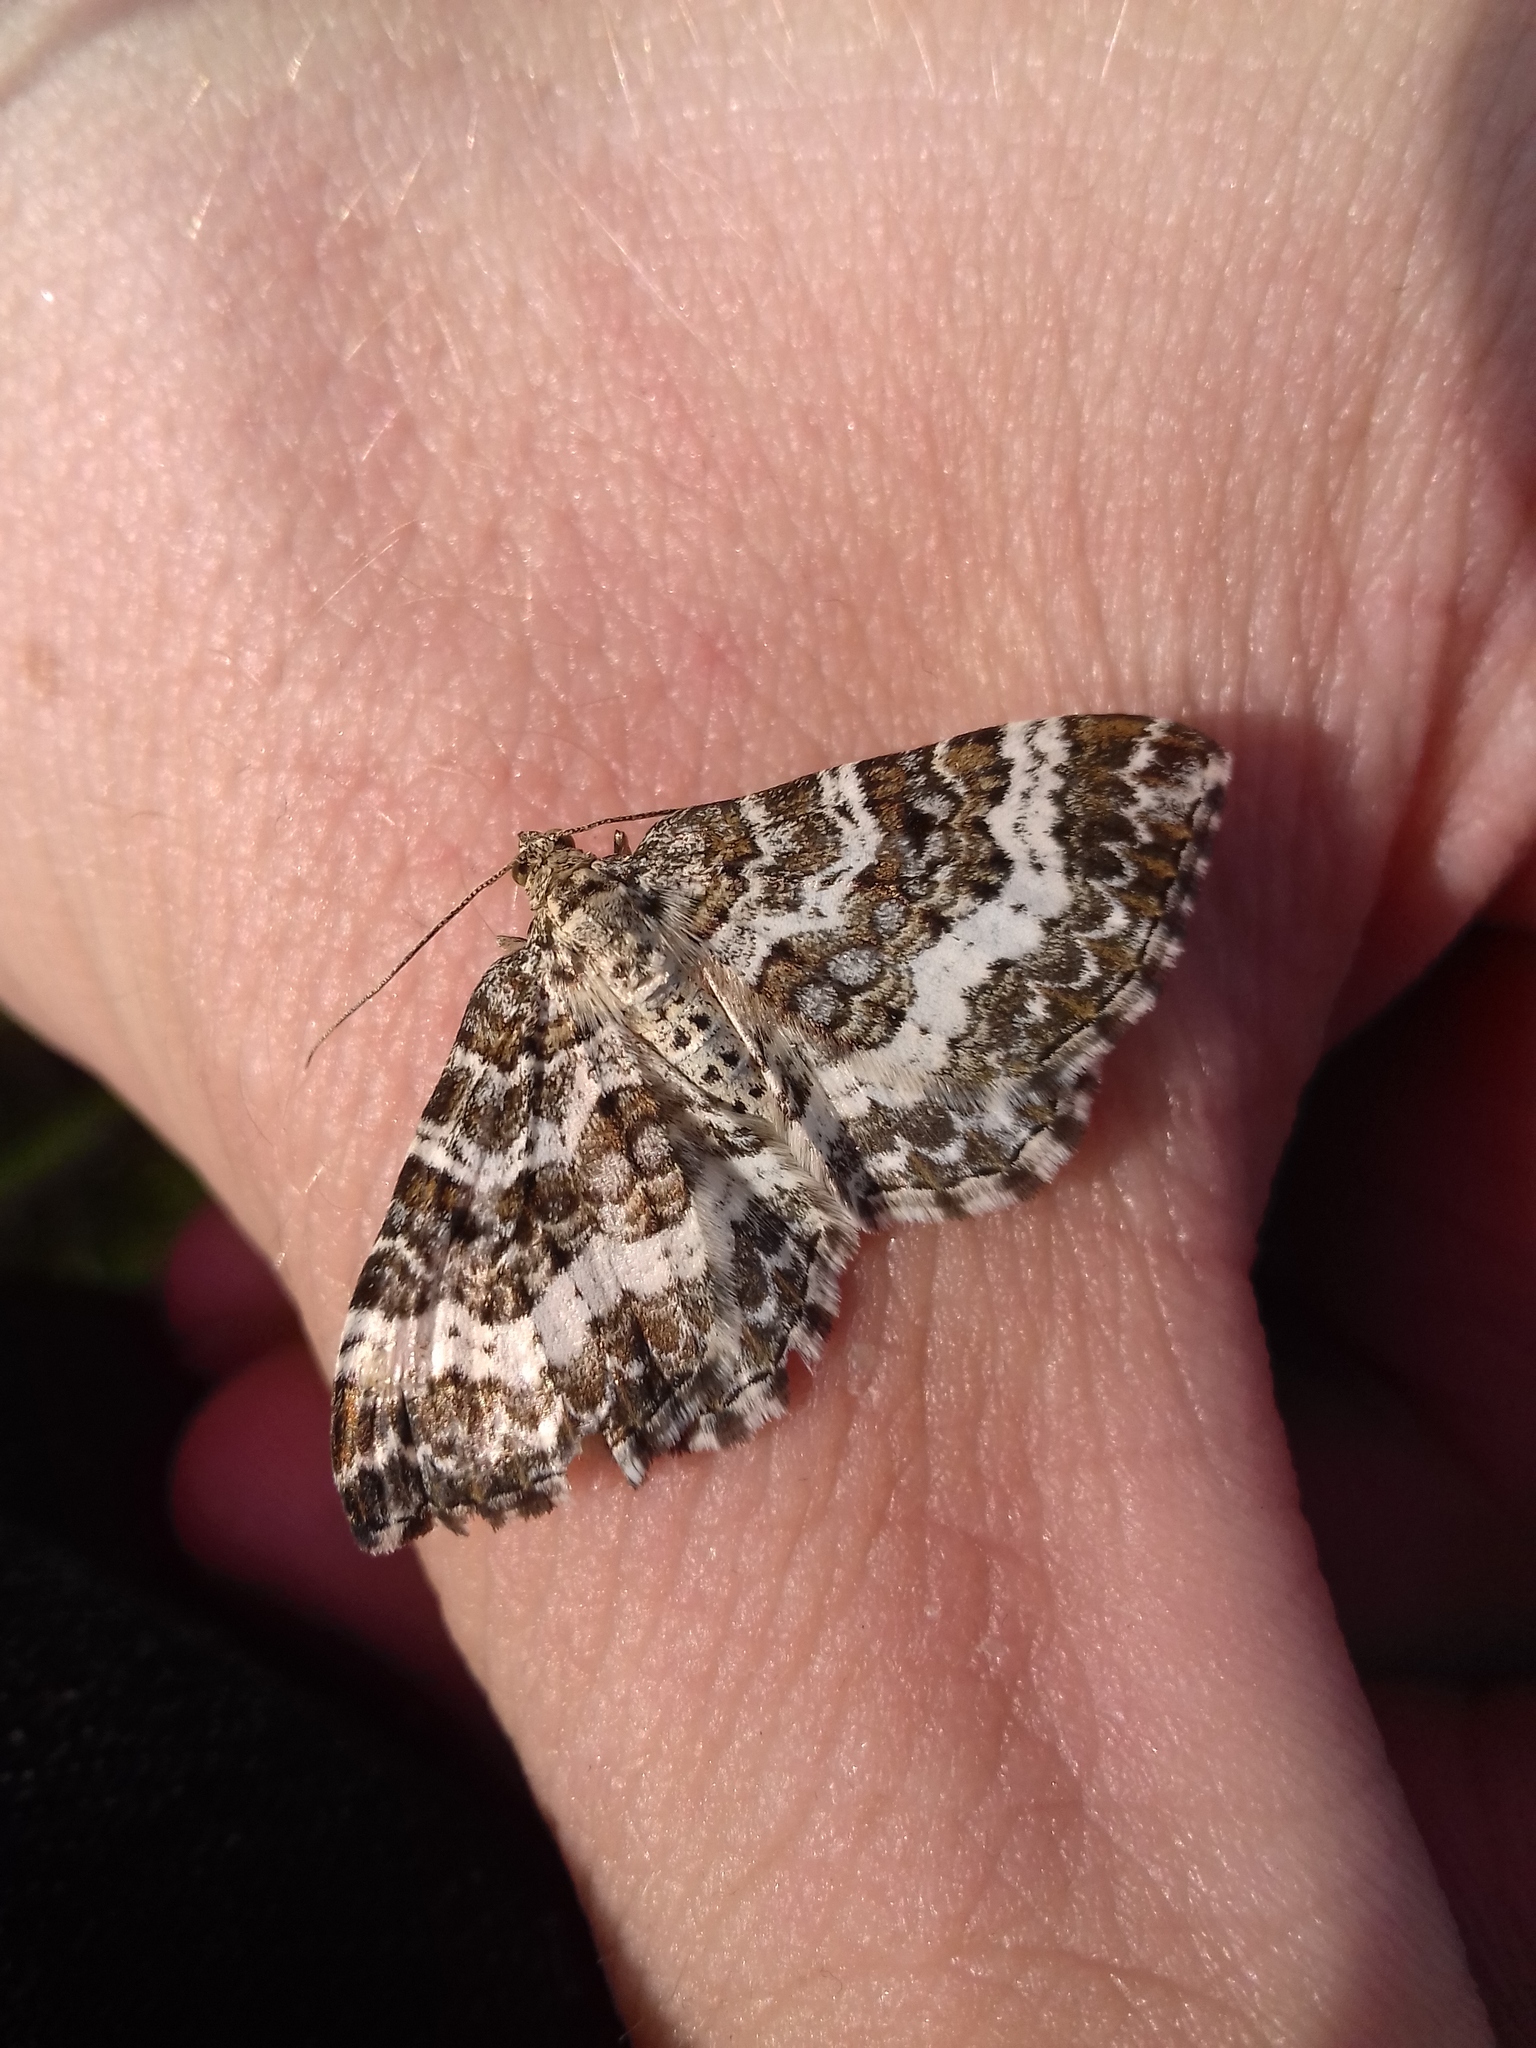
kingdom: Animalia
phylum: Arthropoda
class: Insecta
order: Lepidoptera
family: Geometridae
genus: Epirrhoe
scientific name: Epirrhoe pupillata
